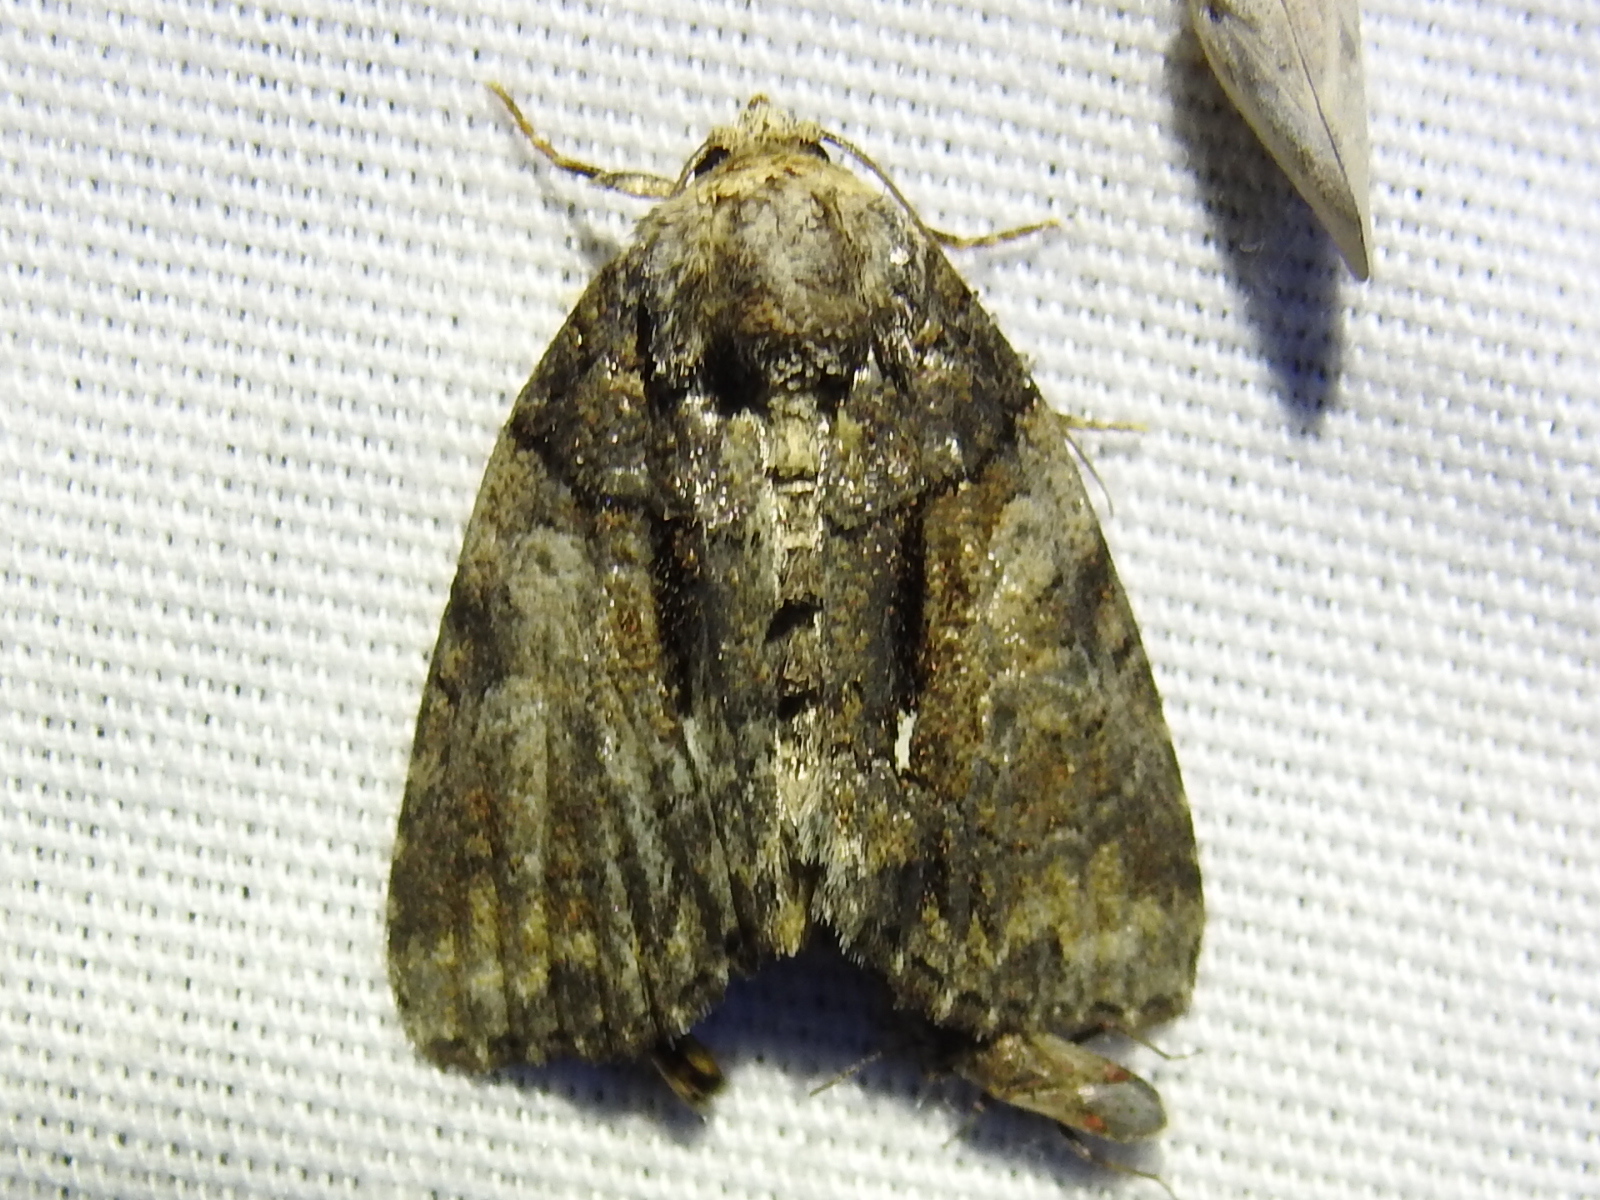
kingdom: Animalia
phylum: Arthropoda
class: Insecta
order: Lepidoptera
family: Noctuidae
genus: Chytonix
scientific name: Chytonix palliatricula
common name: Cloaked marvel
